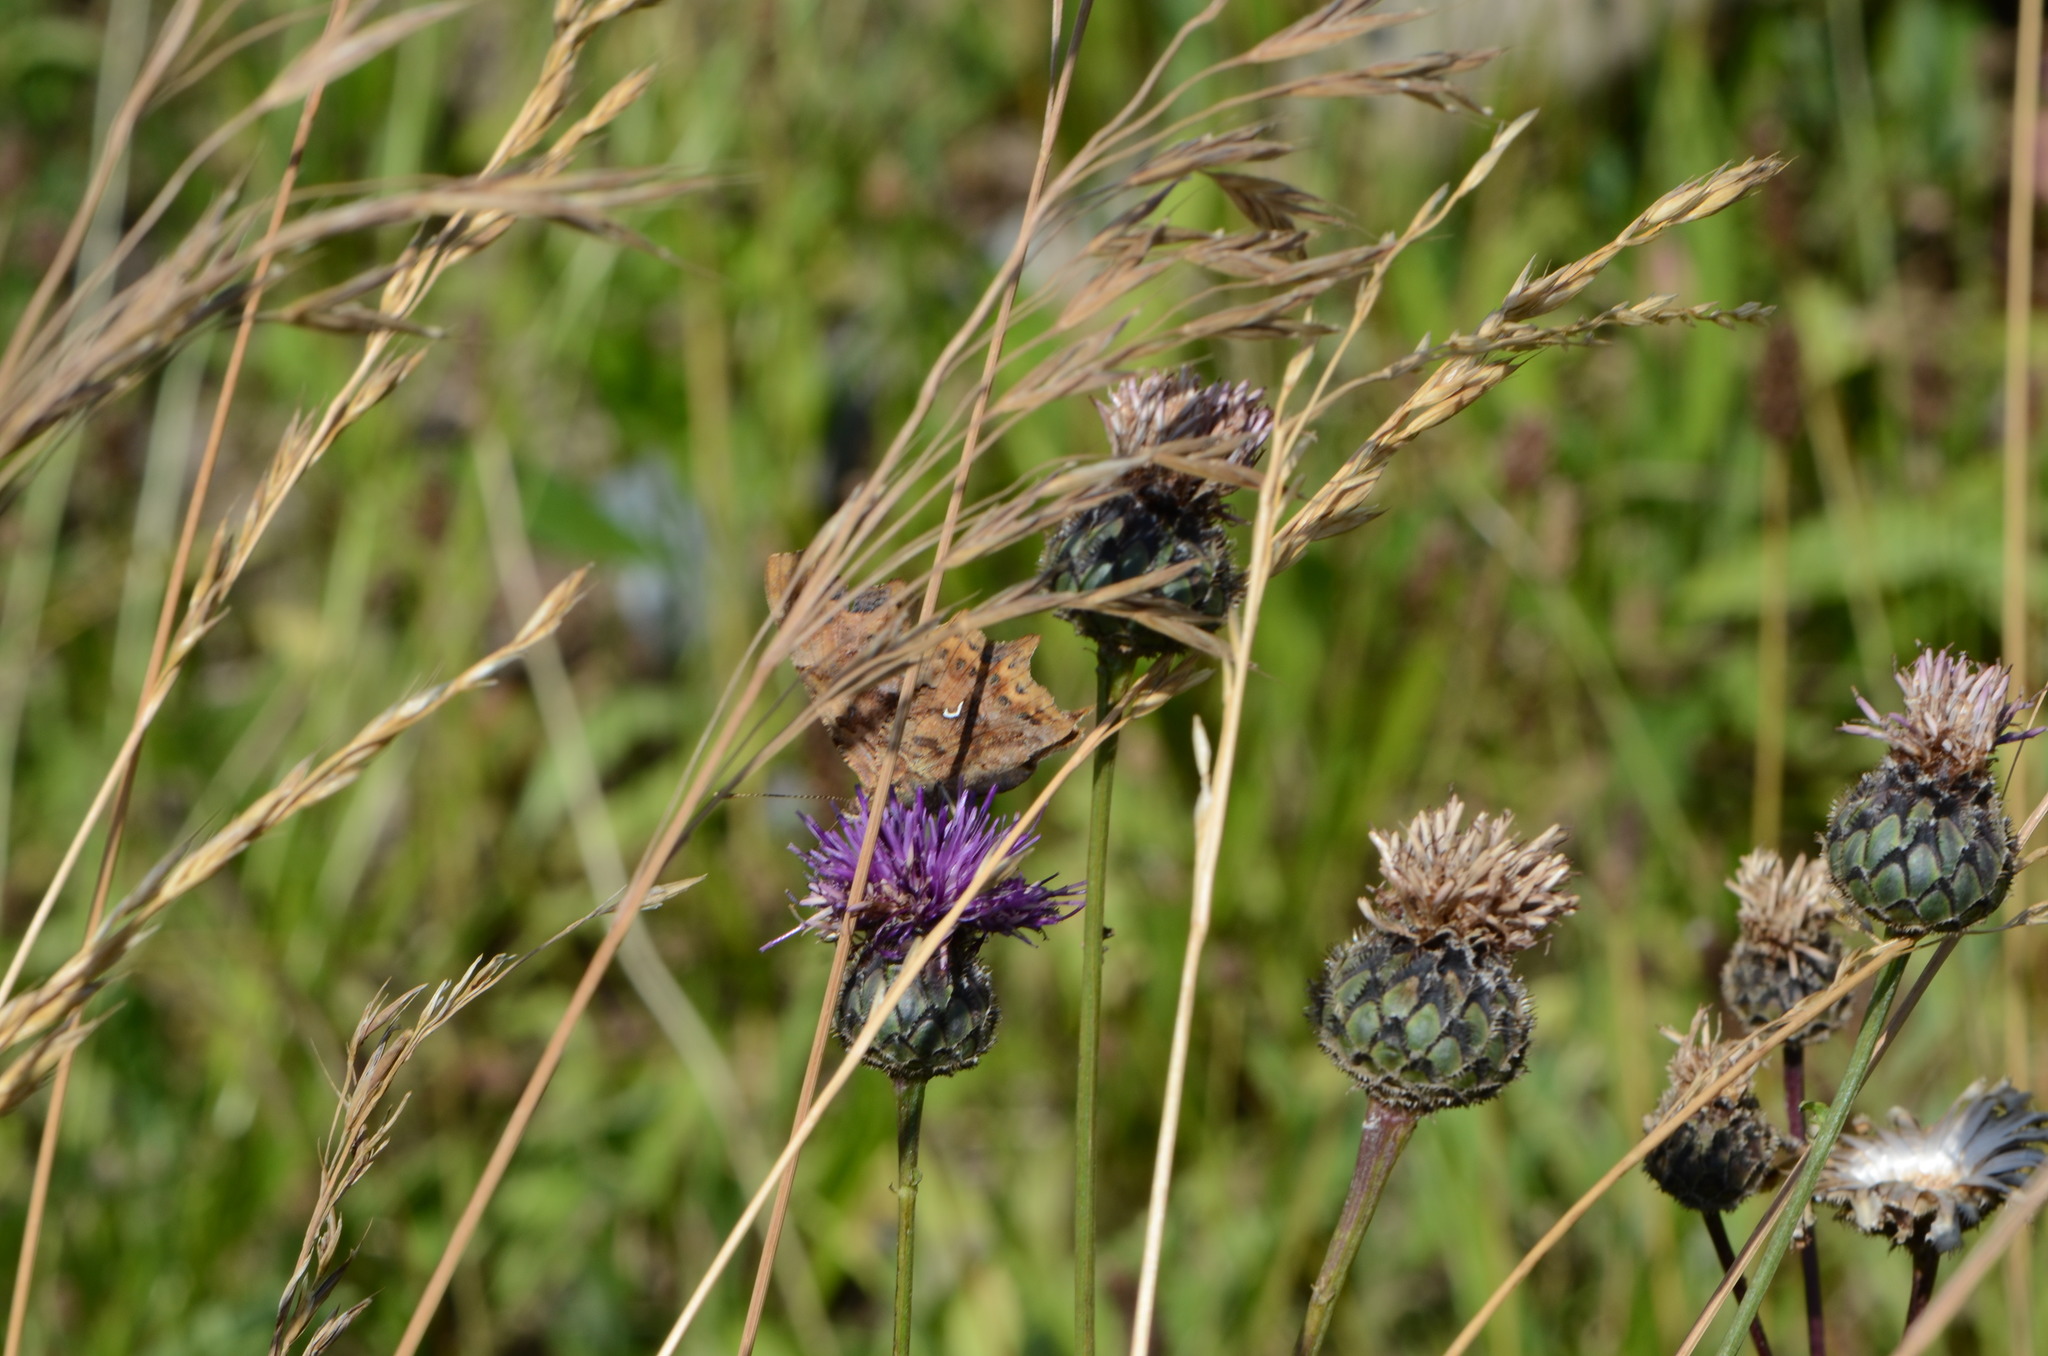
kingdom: Animalia
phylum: Arthropoda
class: Insecta
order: Lepidoptera
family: Nymphalidae
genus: Polygonia
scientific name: Polygonia c-album
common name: Comma
